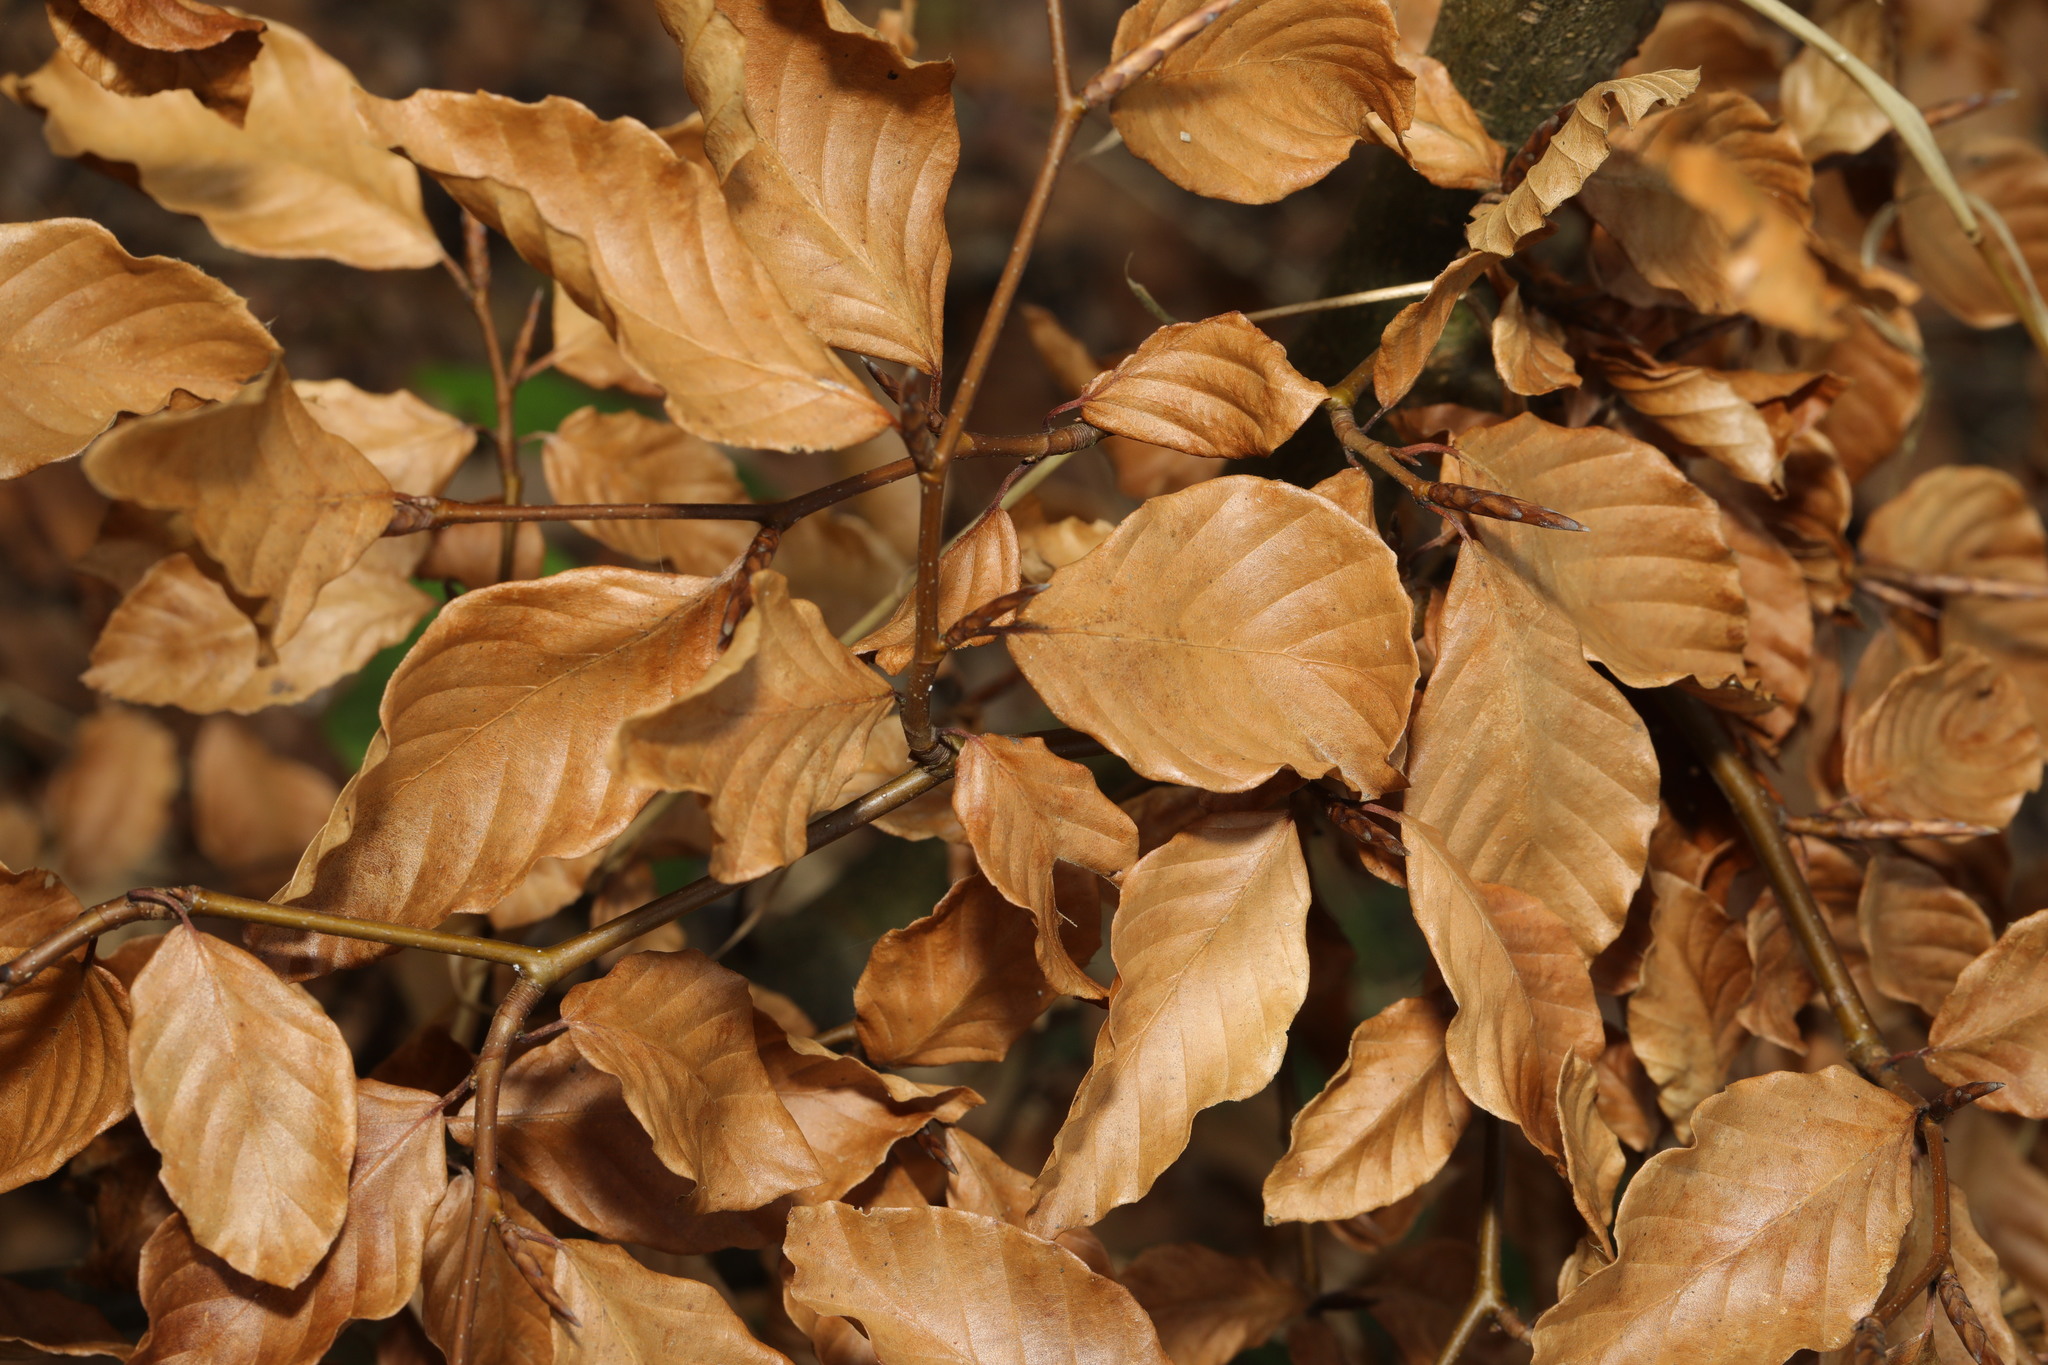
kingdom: Plantae
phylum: Tracheophyta
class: Magnoliopsida
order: Fagales
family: Fagaceae
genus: Fagus
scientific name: Fagus sylvatica
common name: Beech
